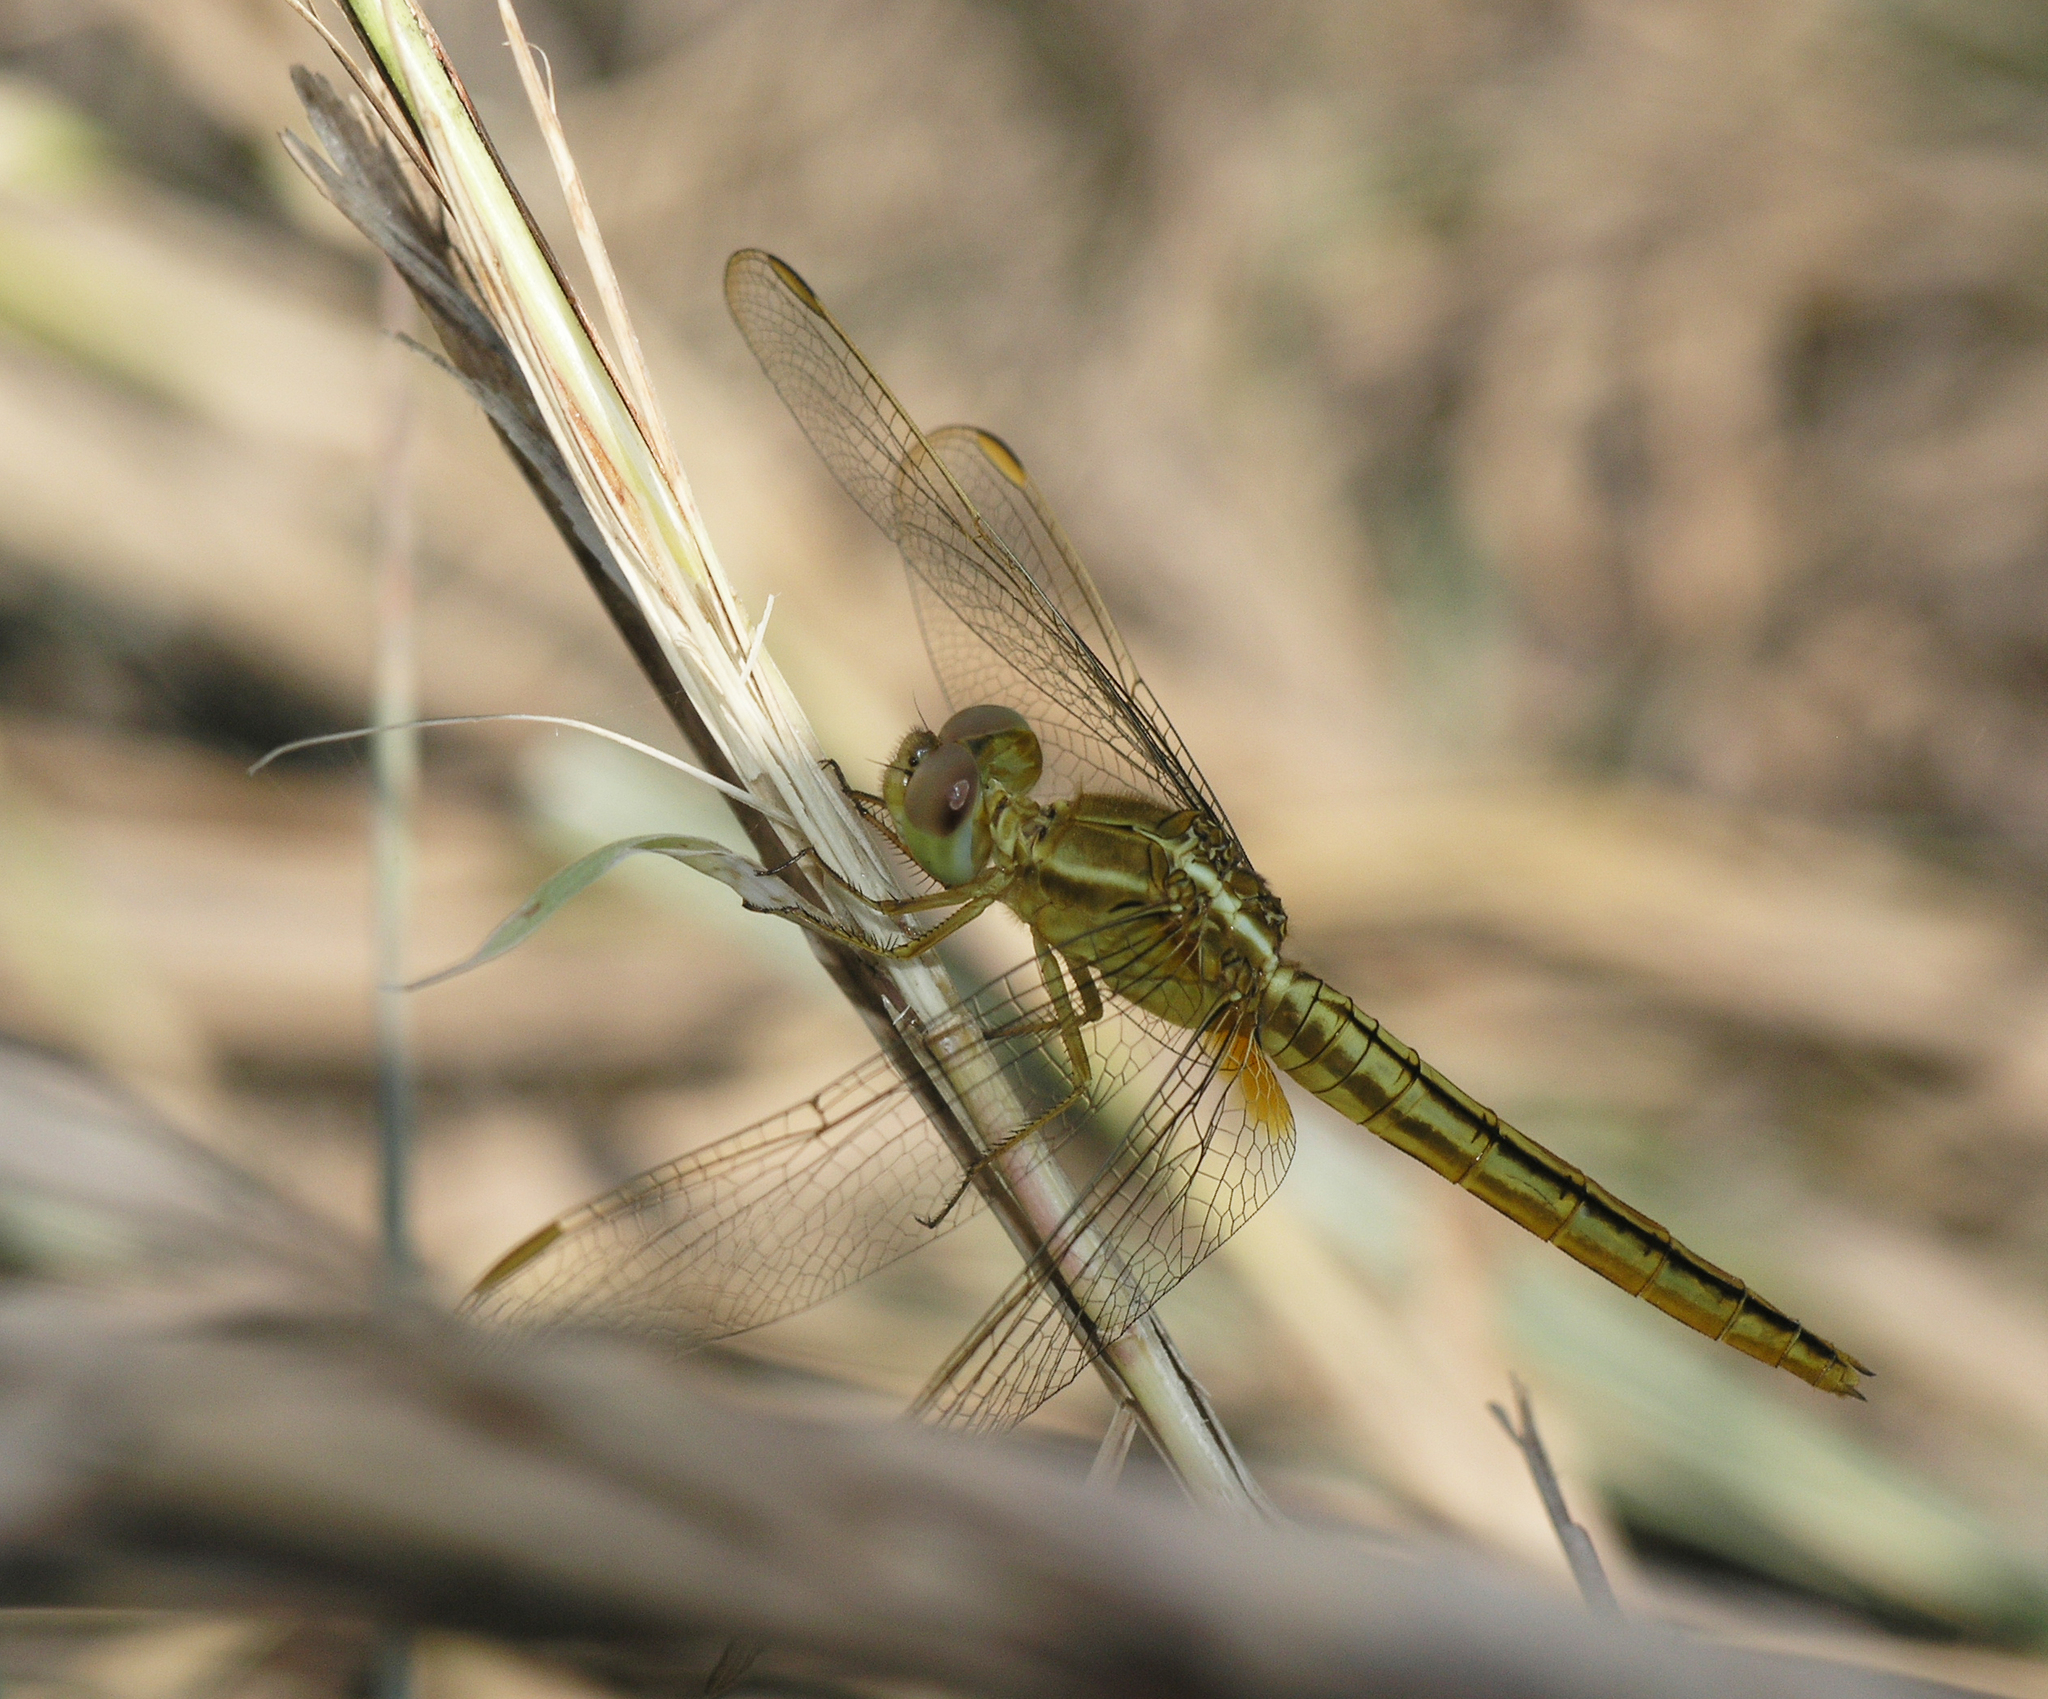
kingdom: Animalia
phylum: Arthropoda
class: Insecta
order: Odonata
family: Libellulidae
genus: Crocothemis
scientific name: Crocothemis servilia
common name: Scarlet skimmer
